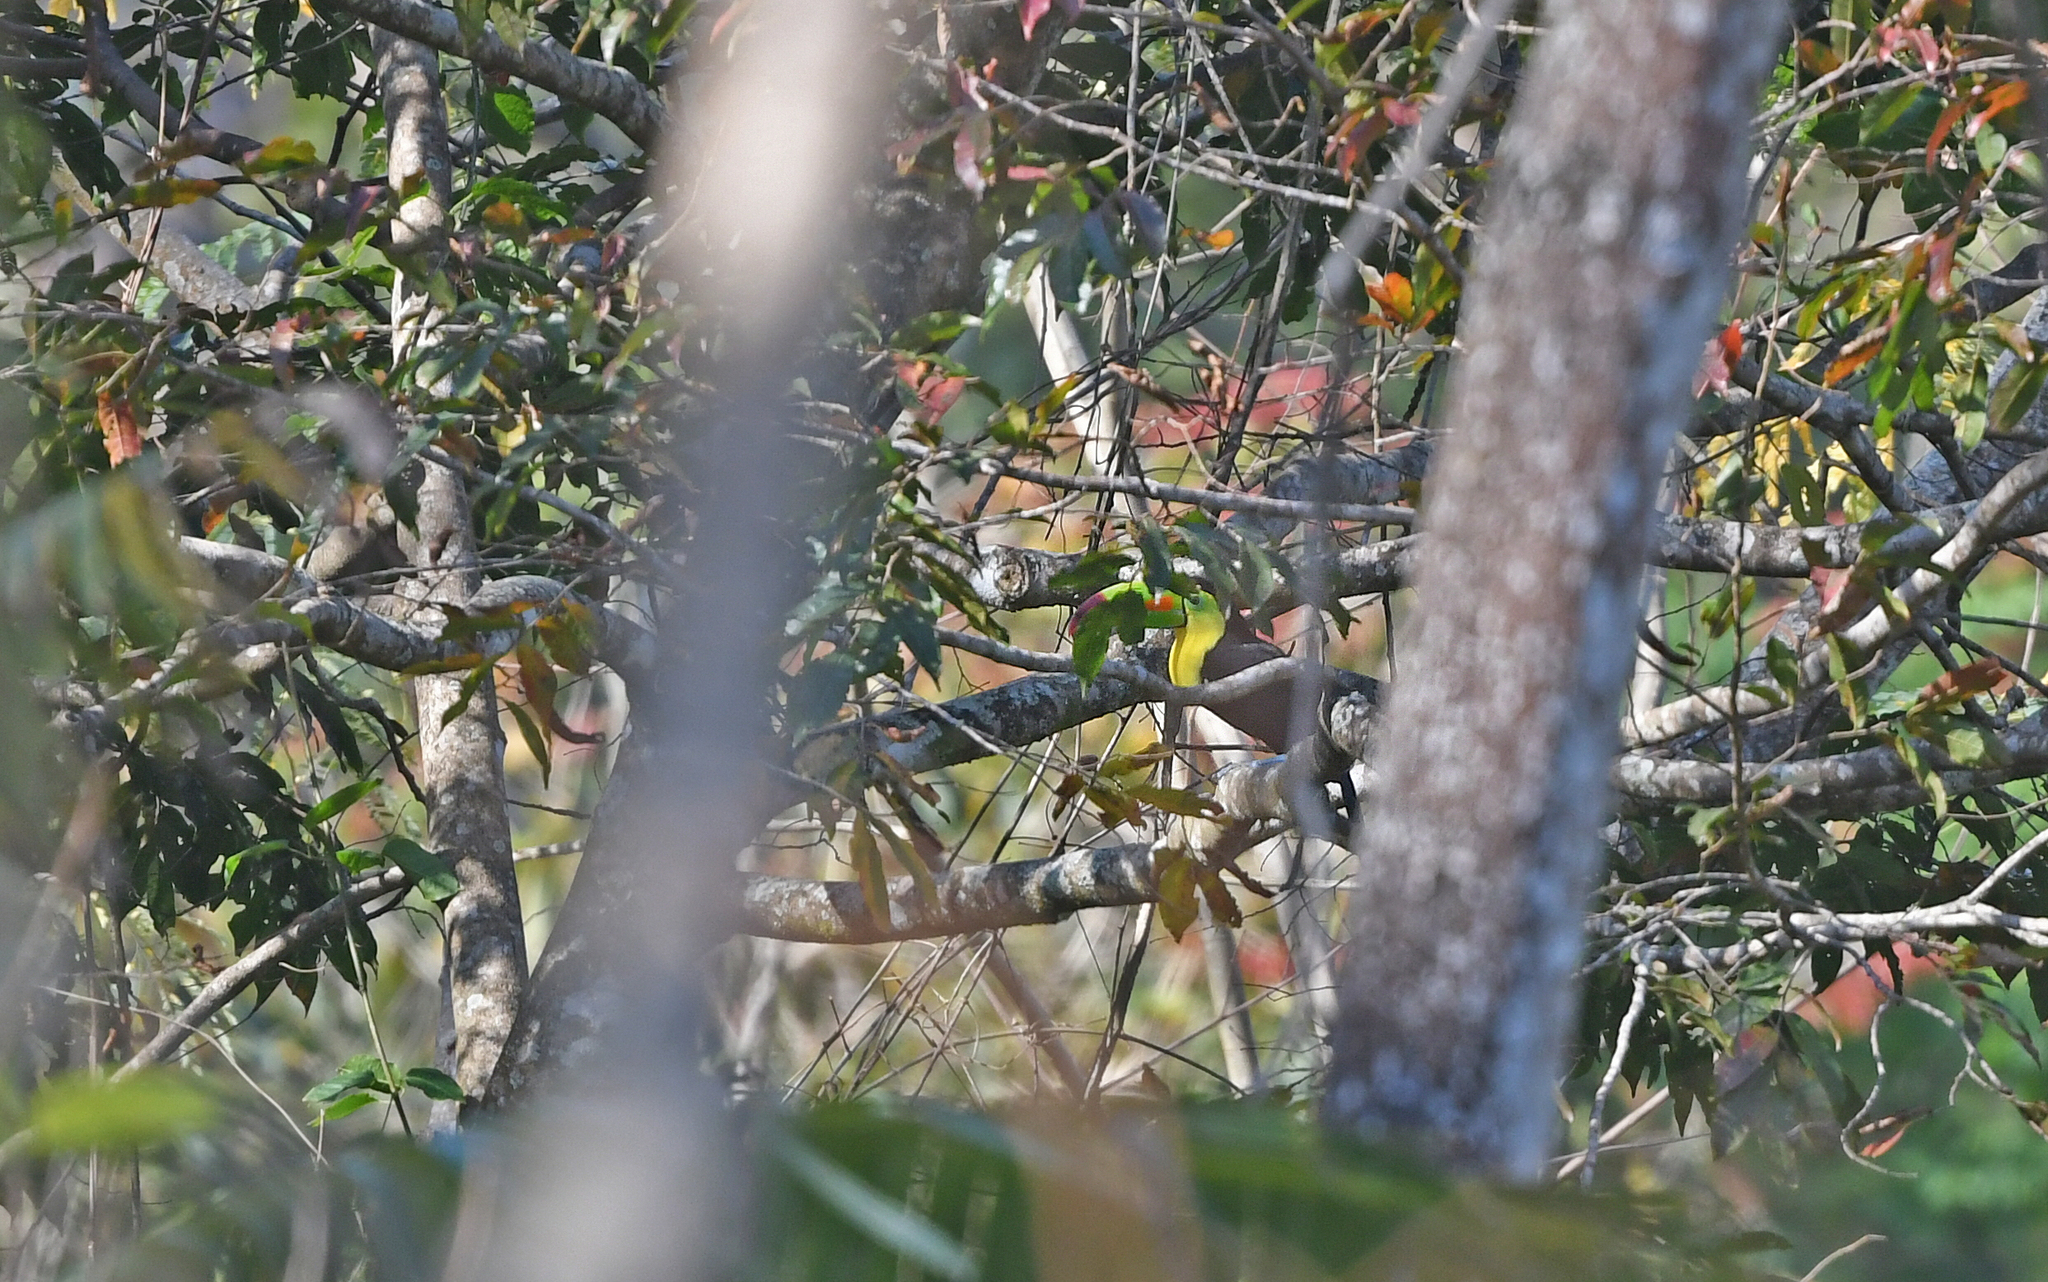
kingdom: Animalia
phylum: Chordata
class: Aves
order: Piciformes
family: Ramphastidae
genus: Ramphastos
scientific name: Ramphastos sulfuratus
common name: Keel-billed toucan
